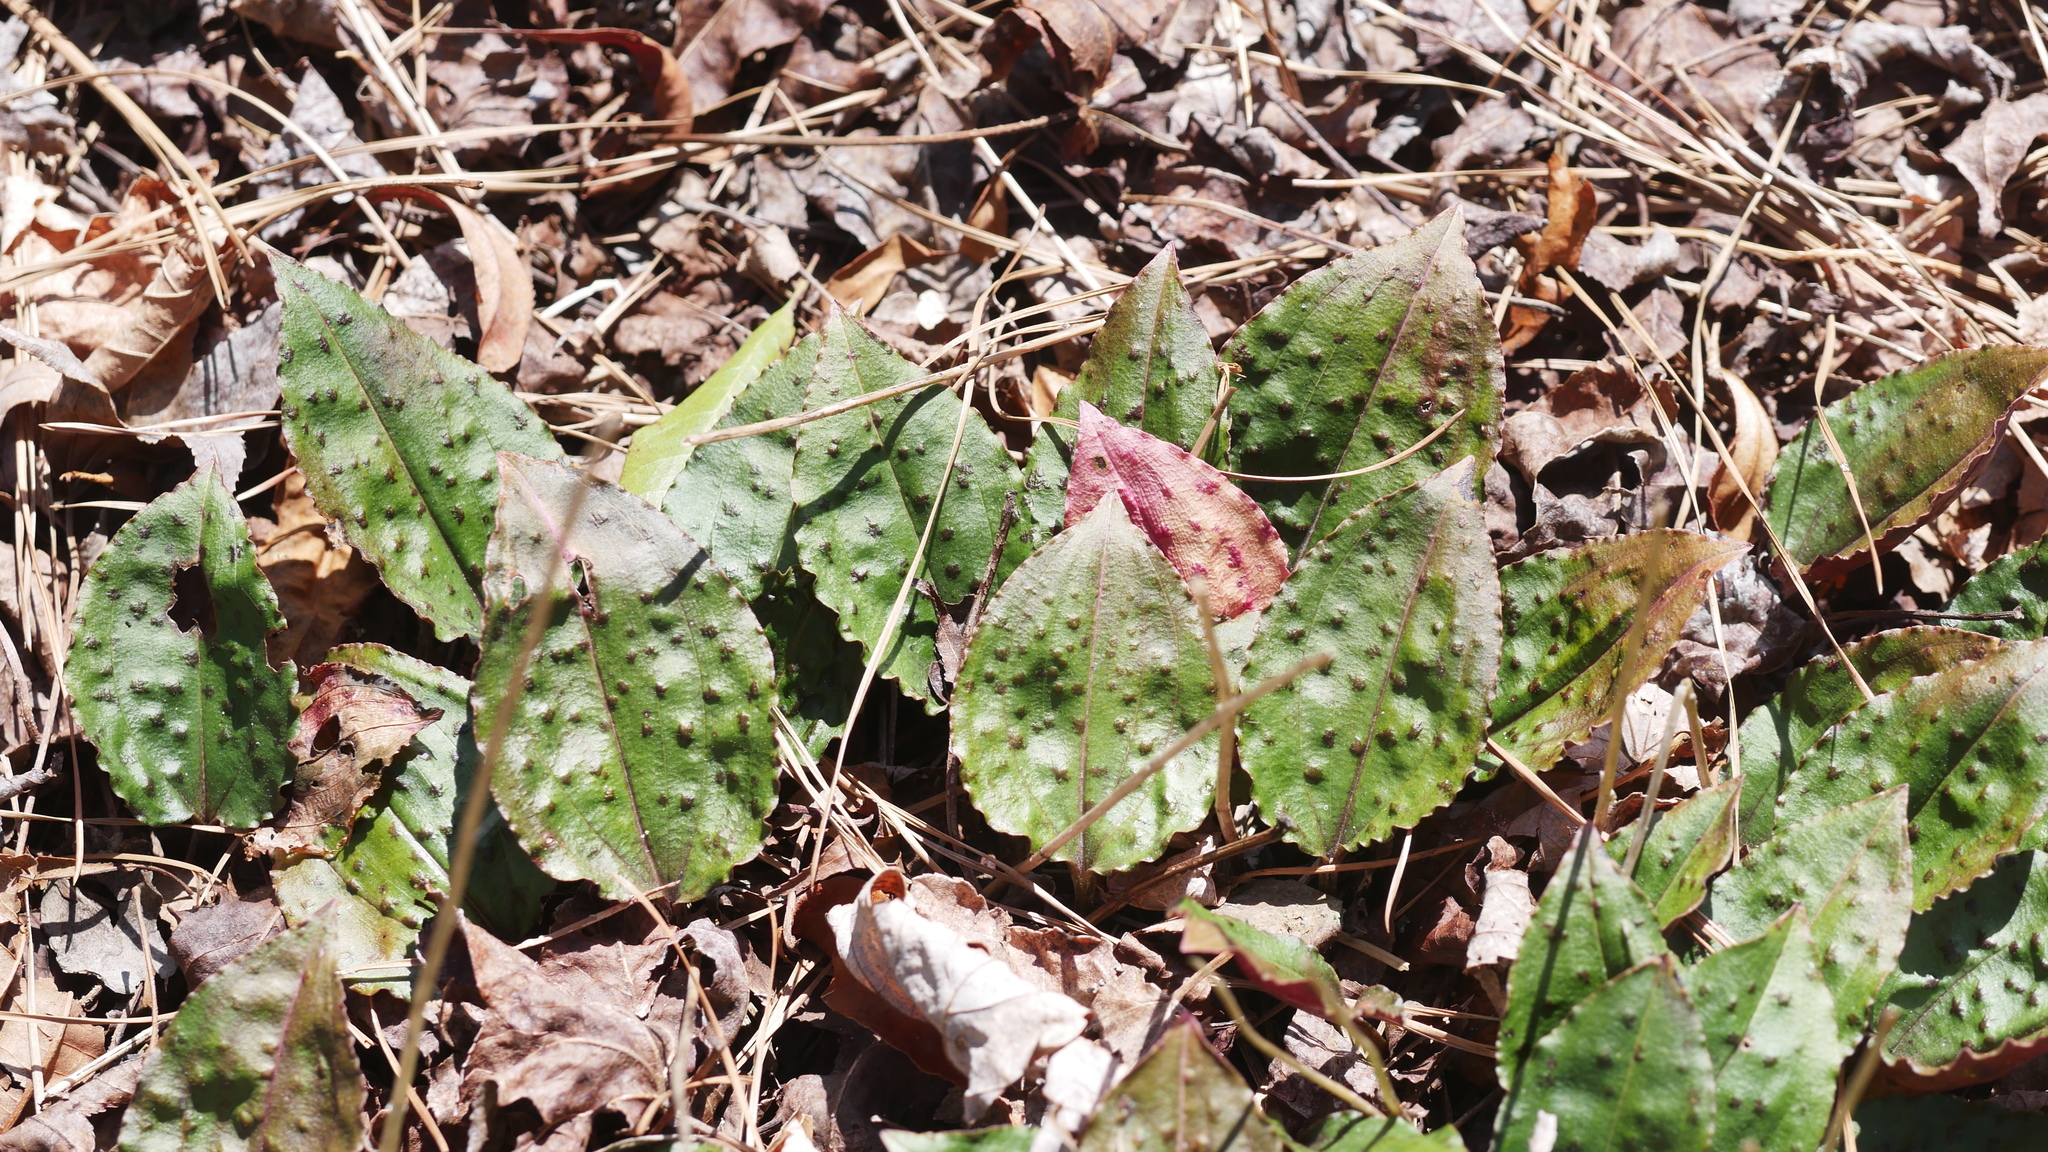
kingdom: Plantae
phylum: Tracheophyta
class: Liliopsida
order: Asparagales
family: Orchidaceae
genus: Tipularia
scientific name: Tipularia discolor
